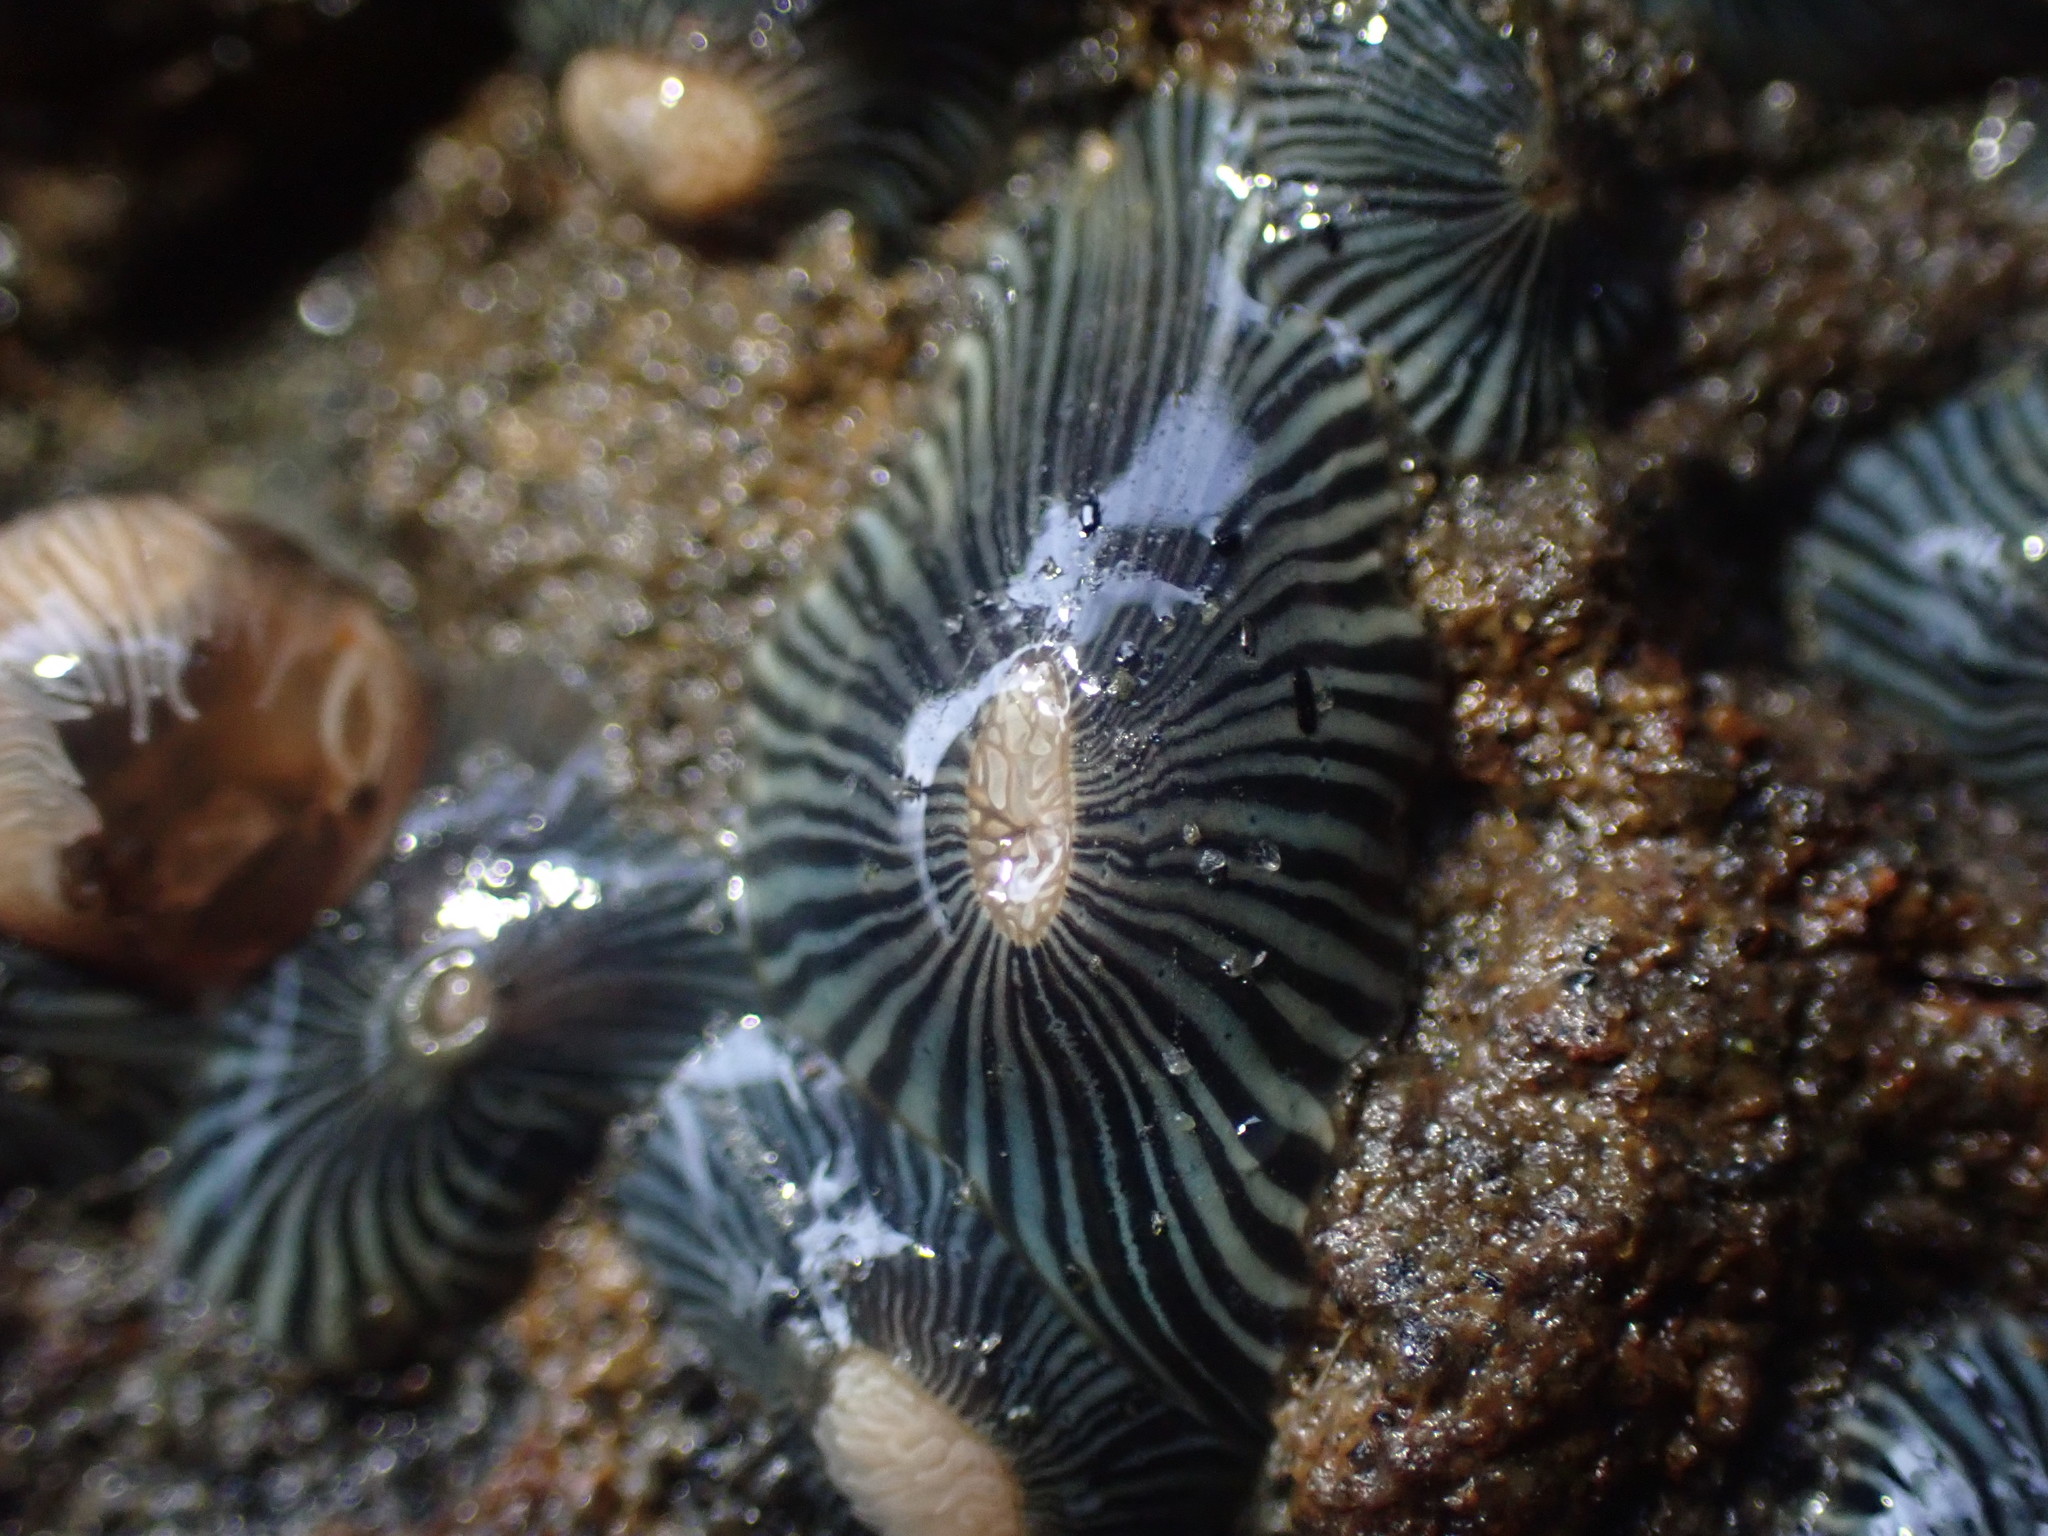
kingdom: Animalia
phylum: Cnidaria
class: Anthozoa
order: Actiniaria
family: Diadumenidae
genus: Diadumene
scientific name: Diadumene neozelanica
